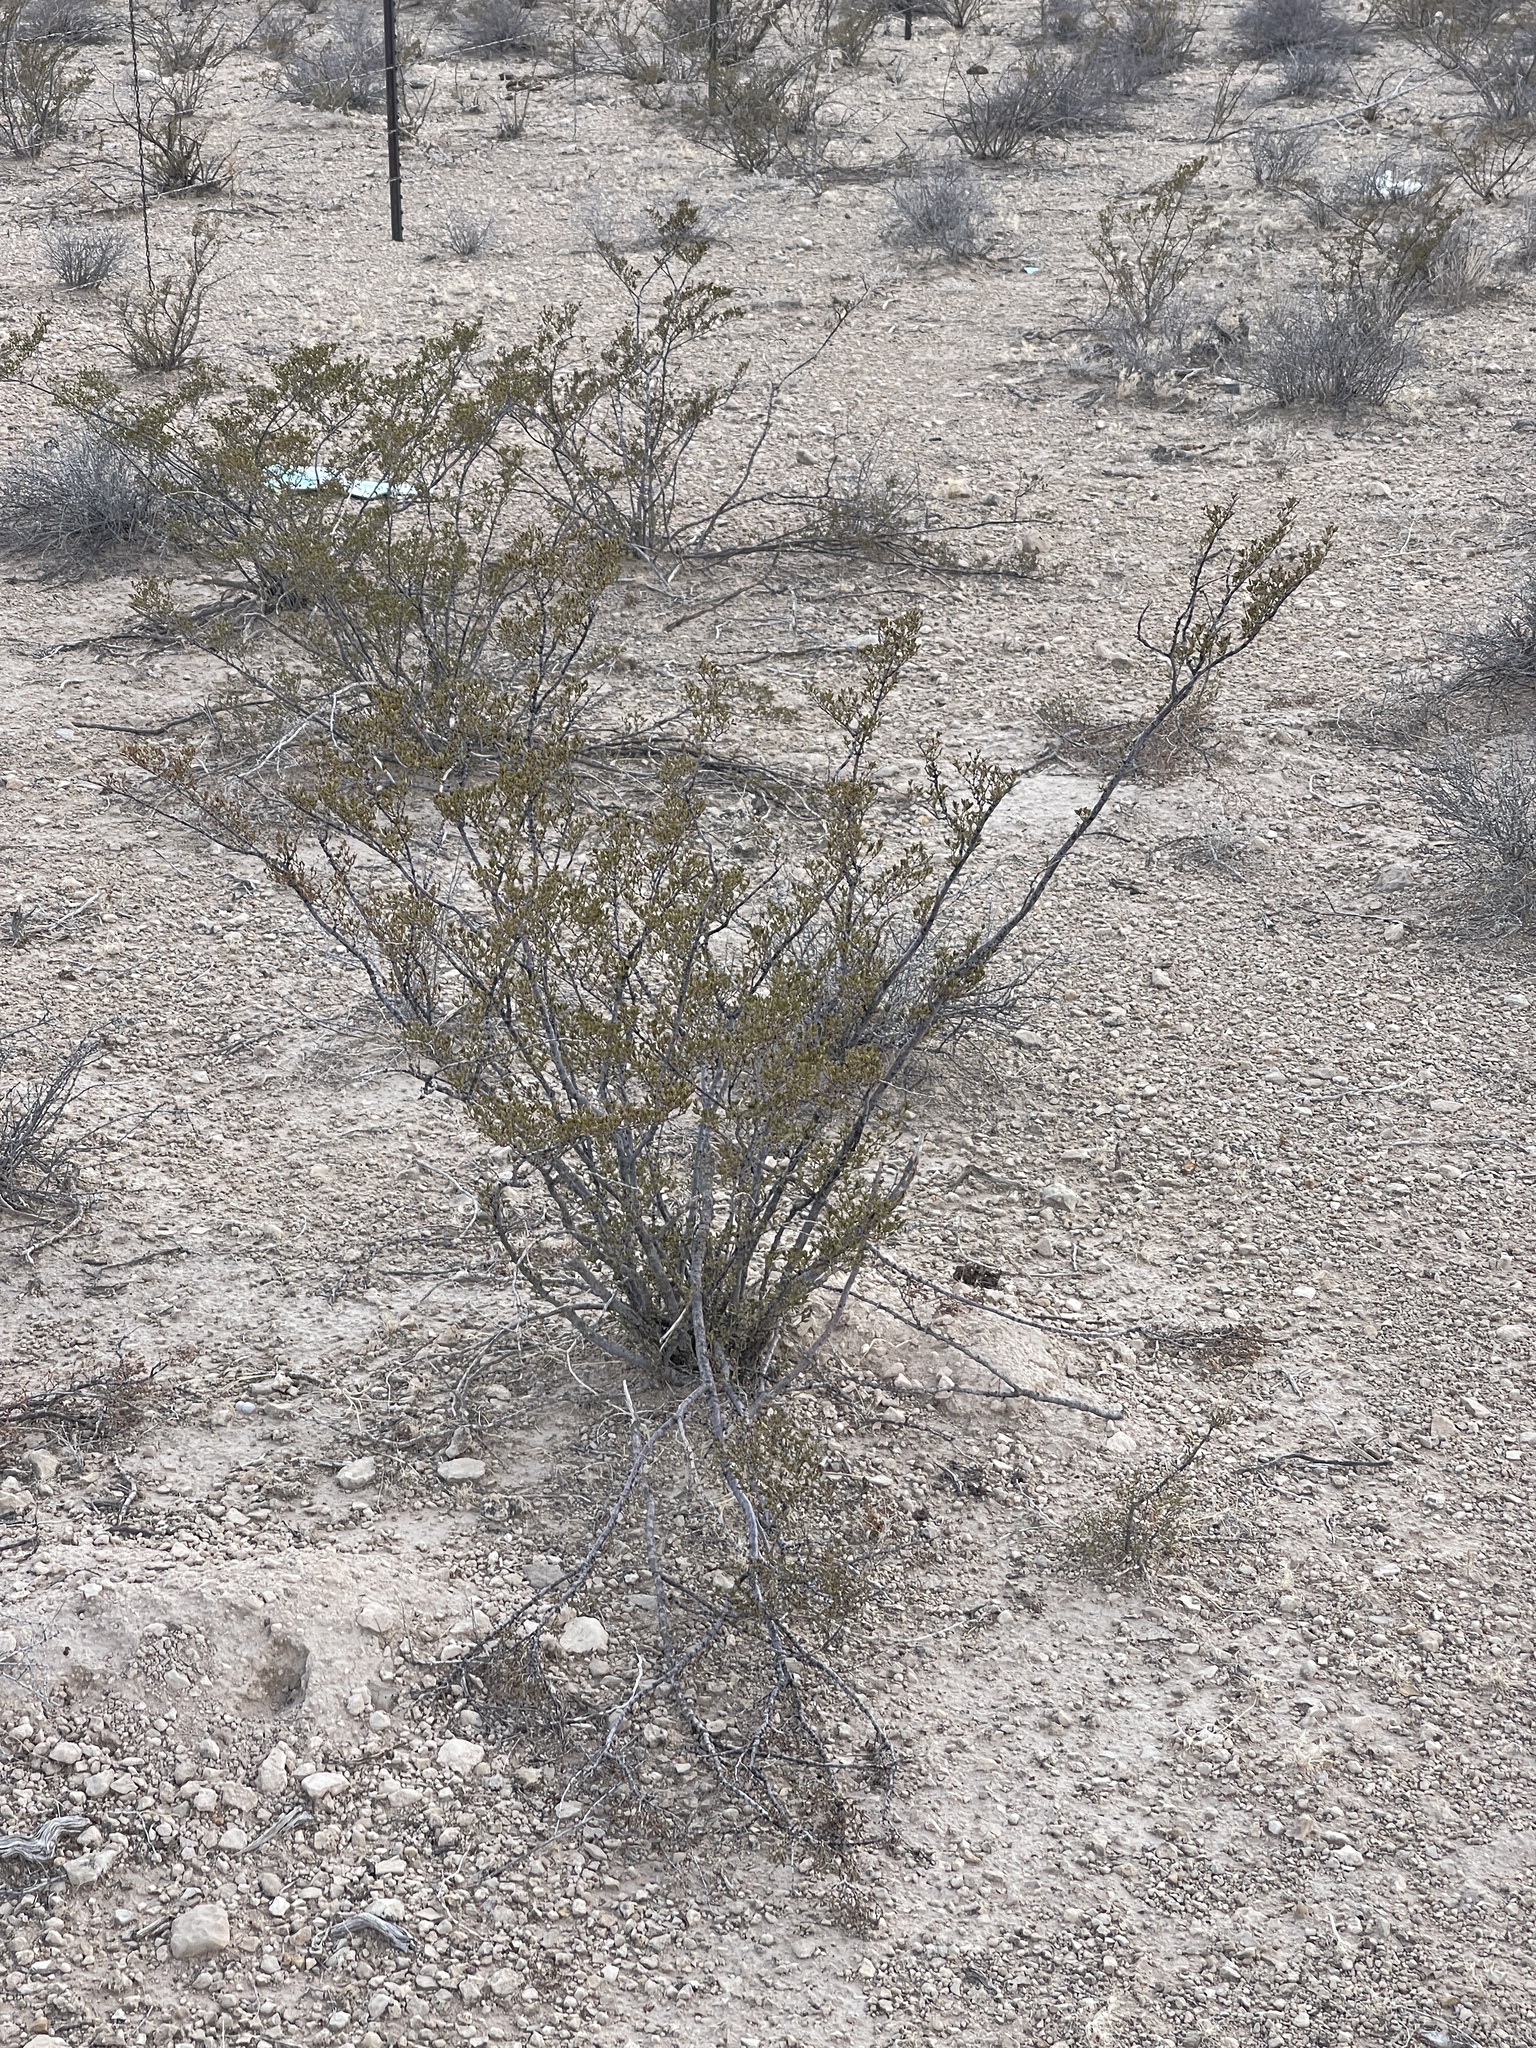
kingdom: Plantae
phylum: Tracheophyta
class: Magnoliopsida
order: Zygophyllales
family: Zygophyllaceae
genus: Larrea
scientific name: Larrea tridentata
